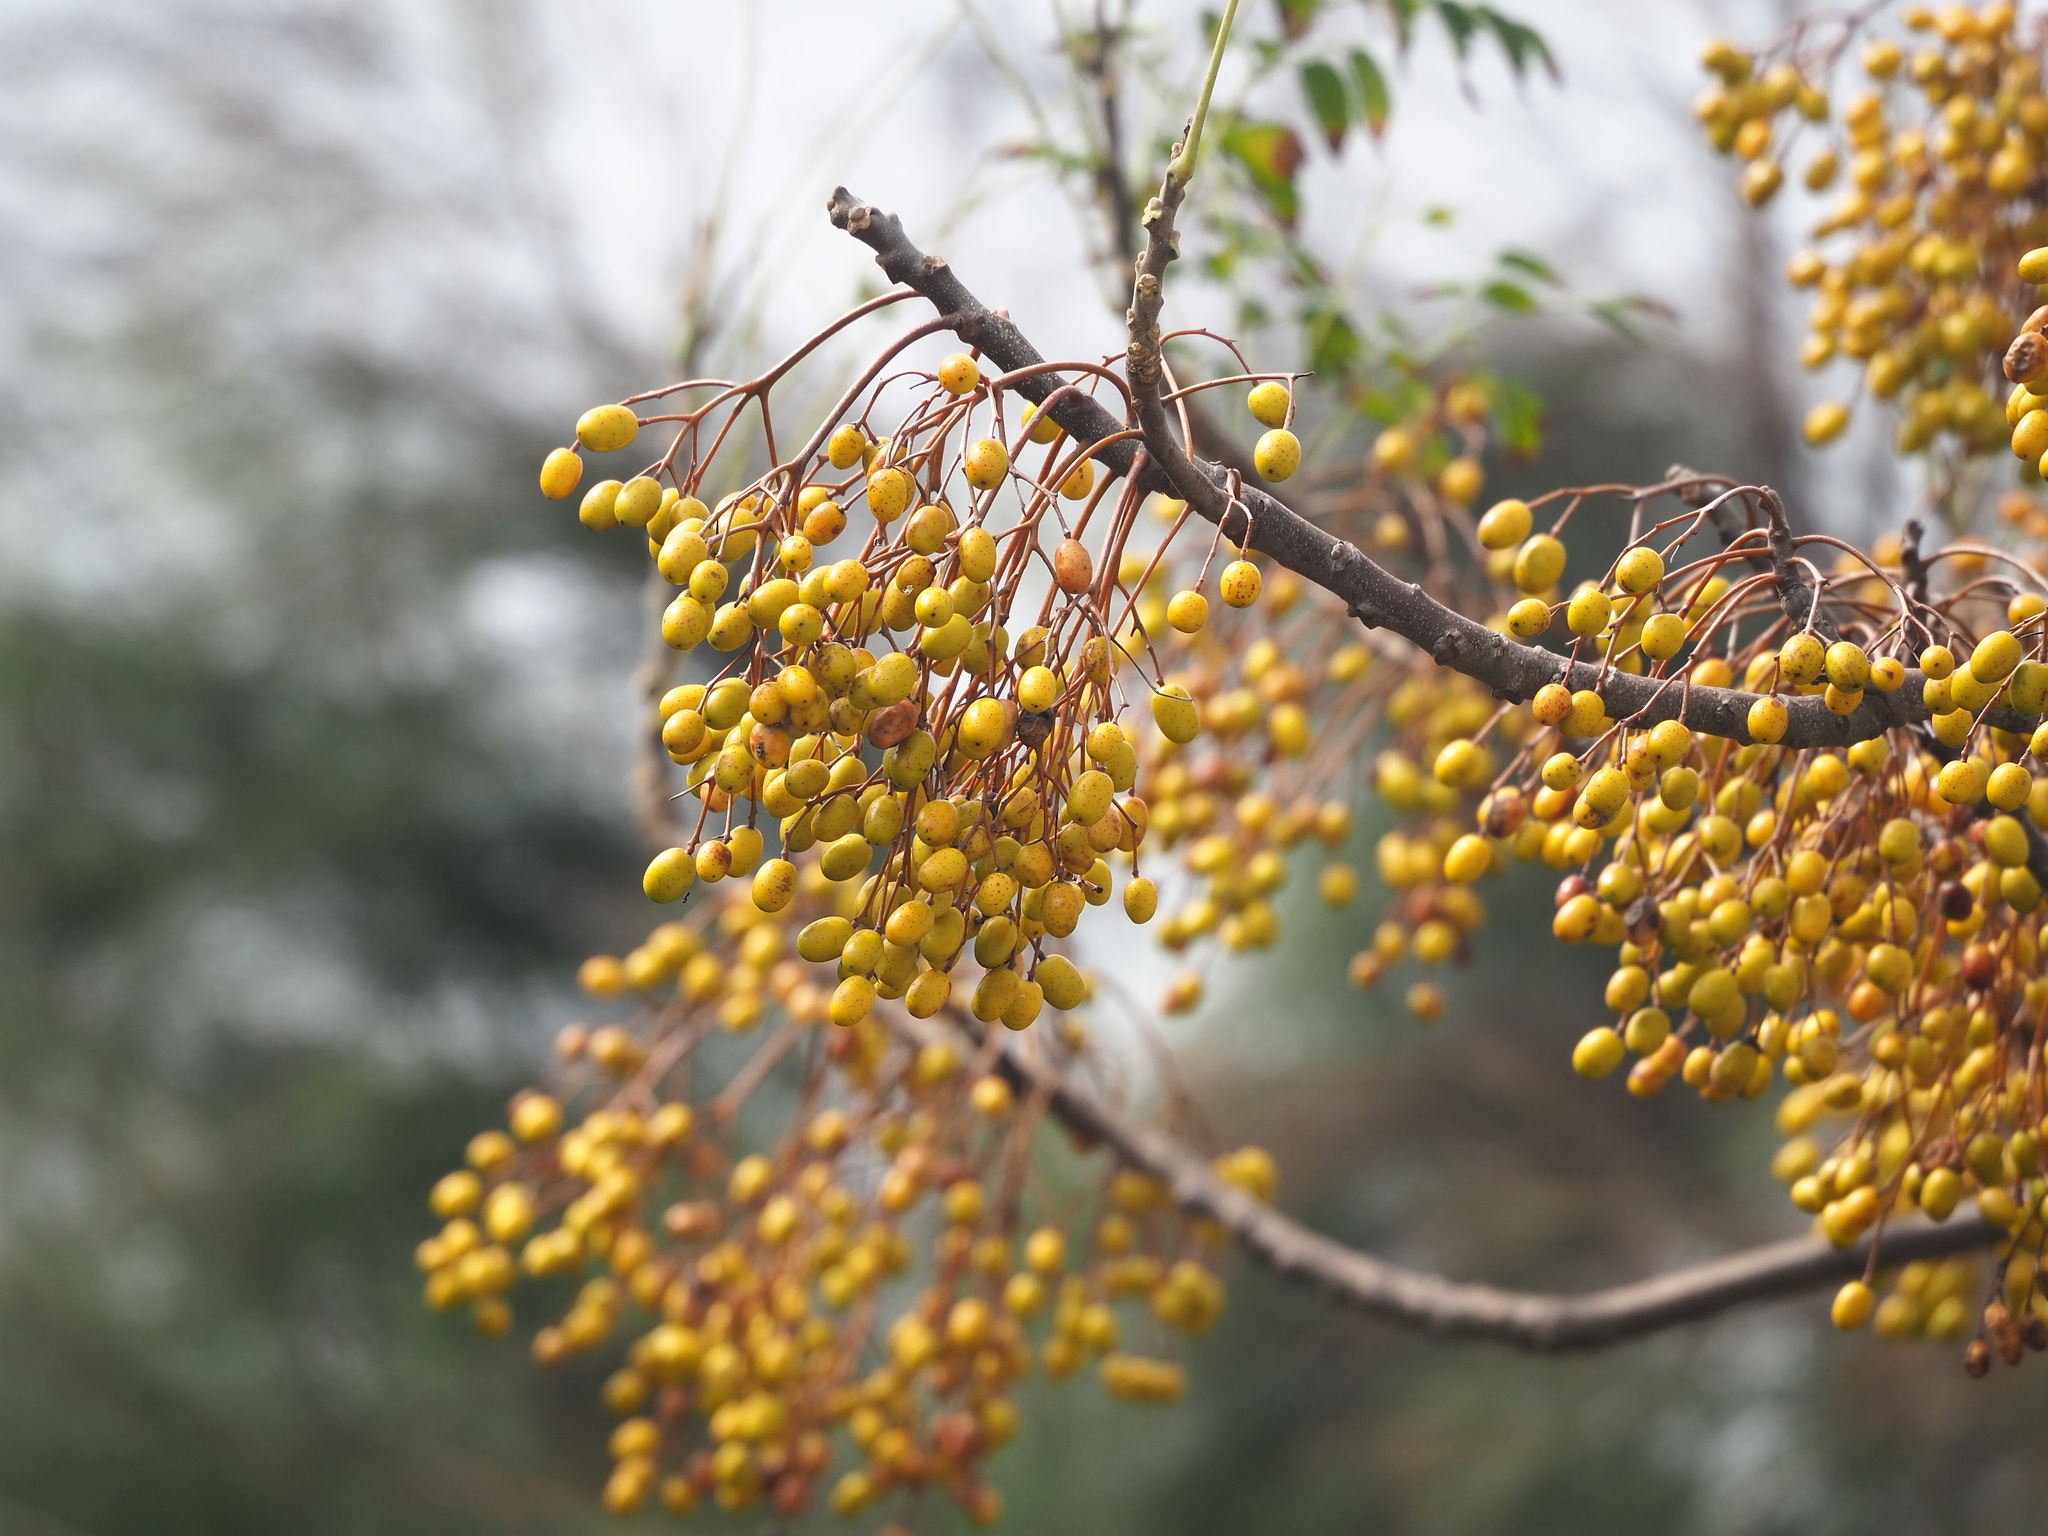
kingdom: Plantae
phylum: Tracheophyta
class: Magnoliopsida
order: Sapindales
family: Meliaceae
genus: Melia
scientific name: Melia azedarach
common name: Chinaberrytree
